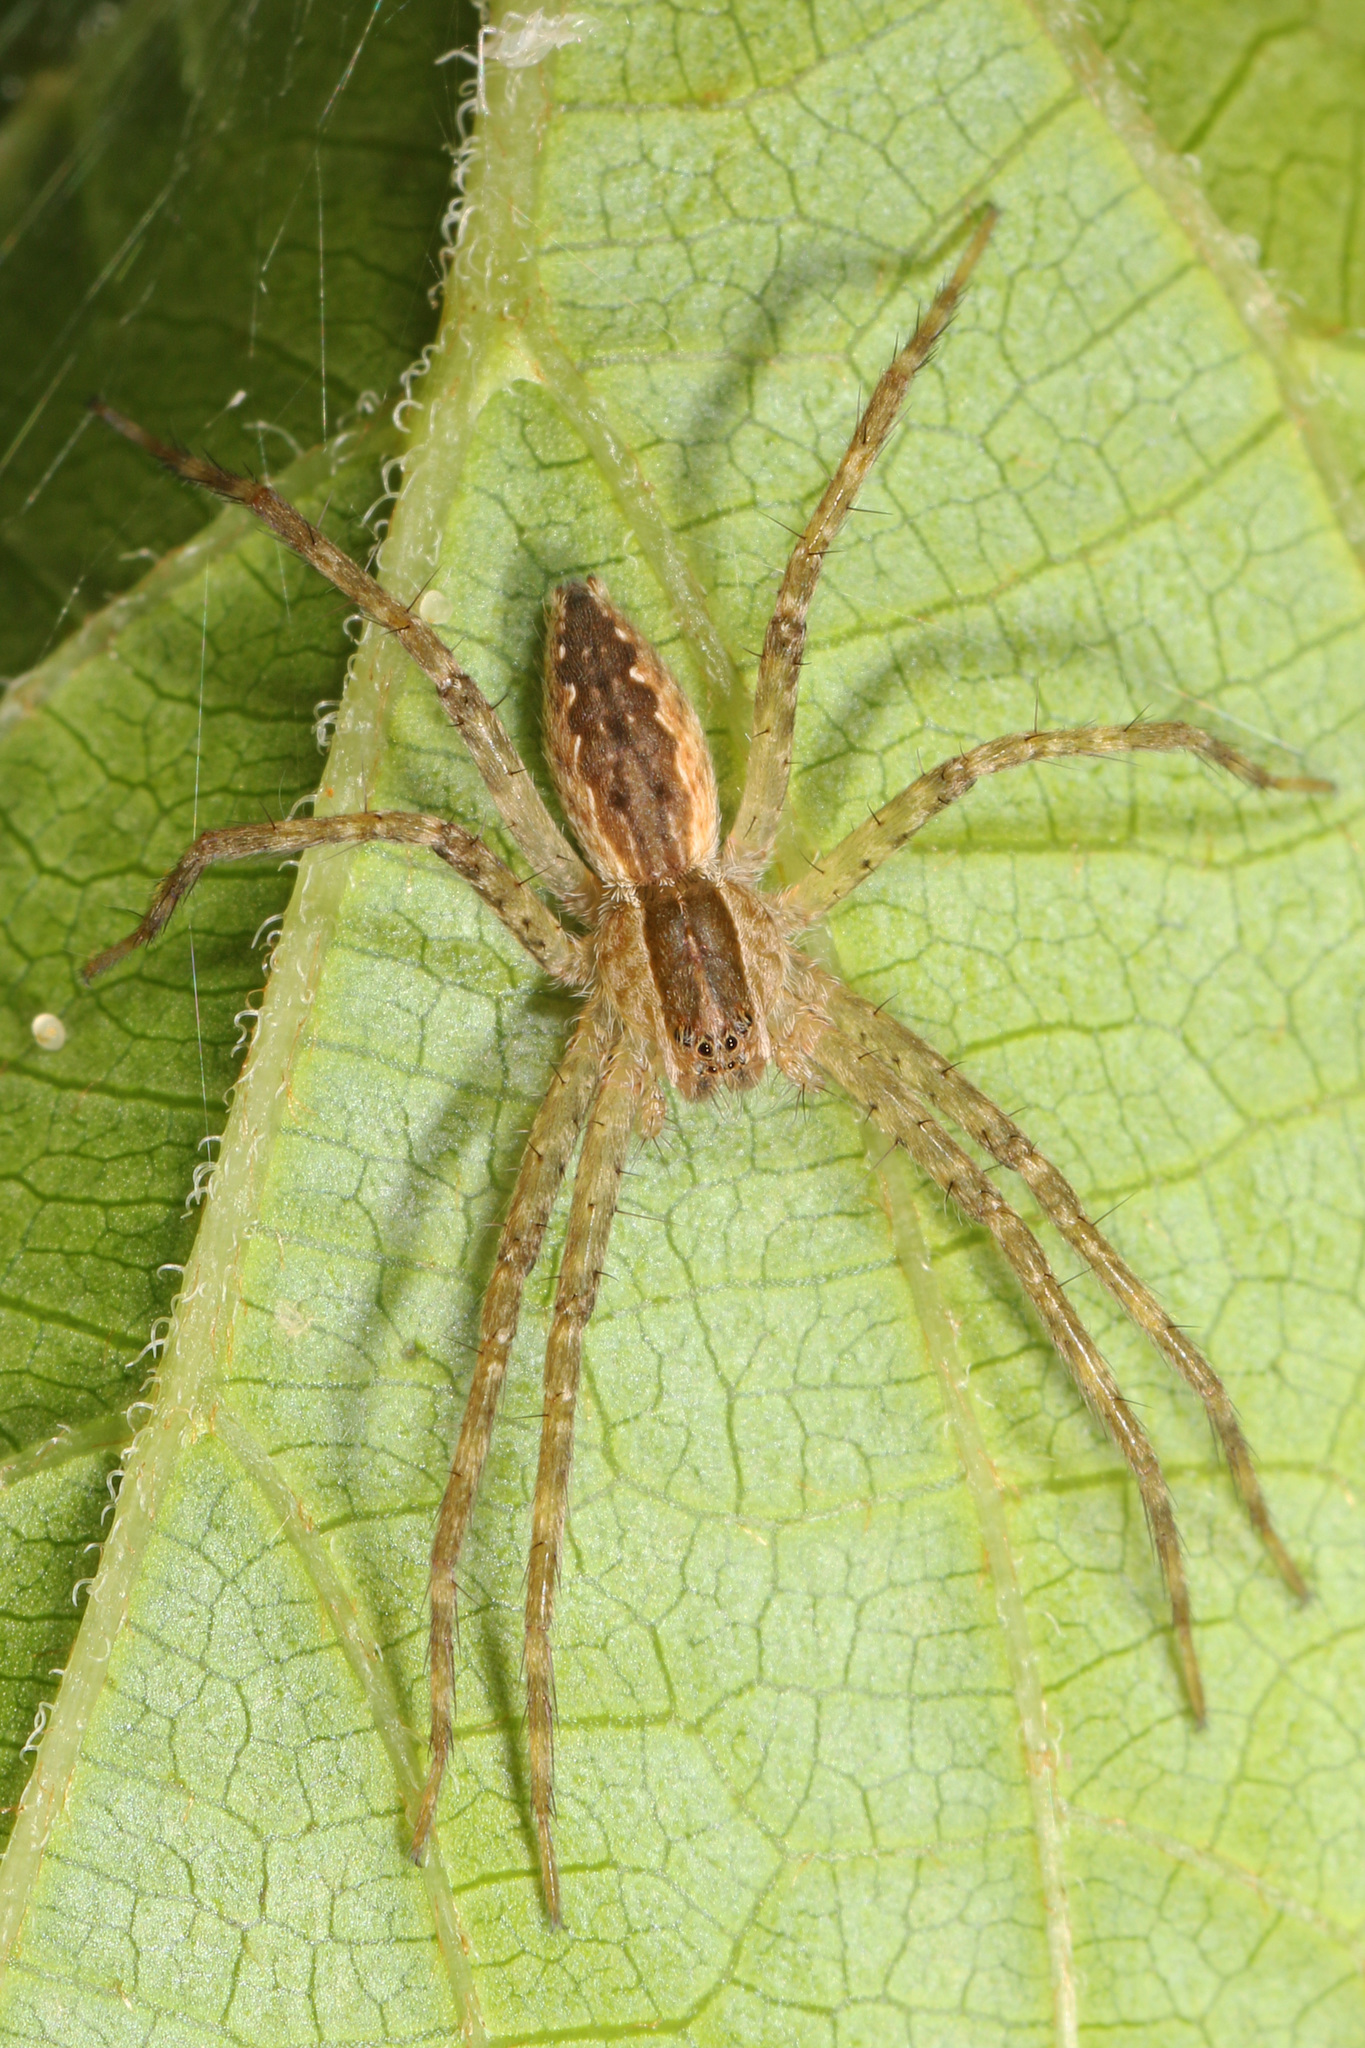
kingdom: Animalia
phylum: Arthropoda
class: Arachnida
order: Araneae
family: Pisauridae
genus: Pisaurina
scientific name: Pisaurina mira
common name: American nursery web spider
